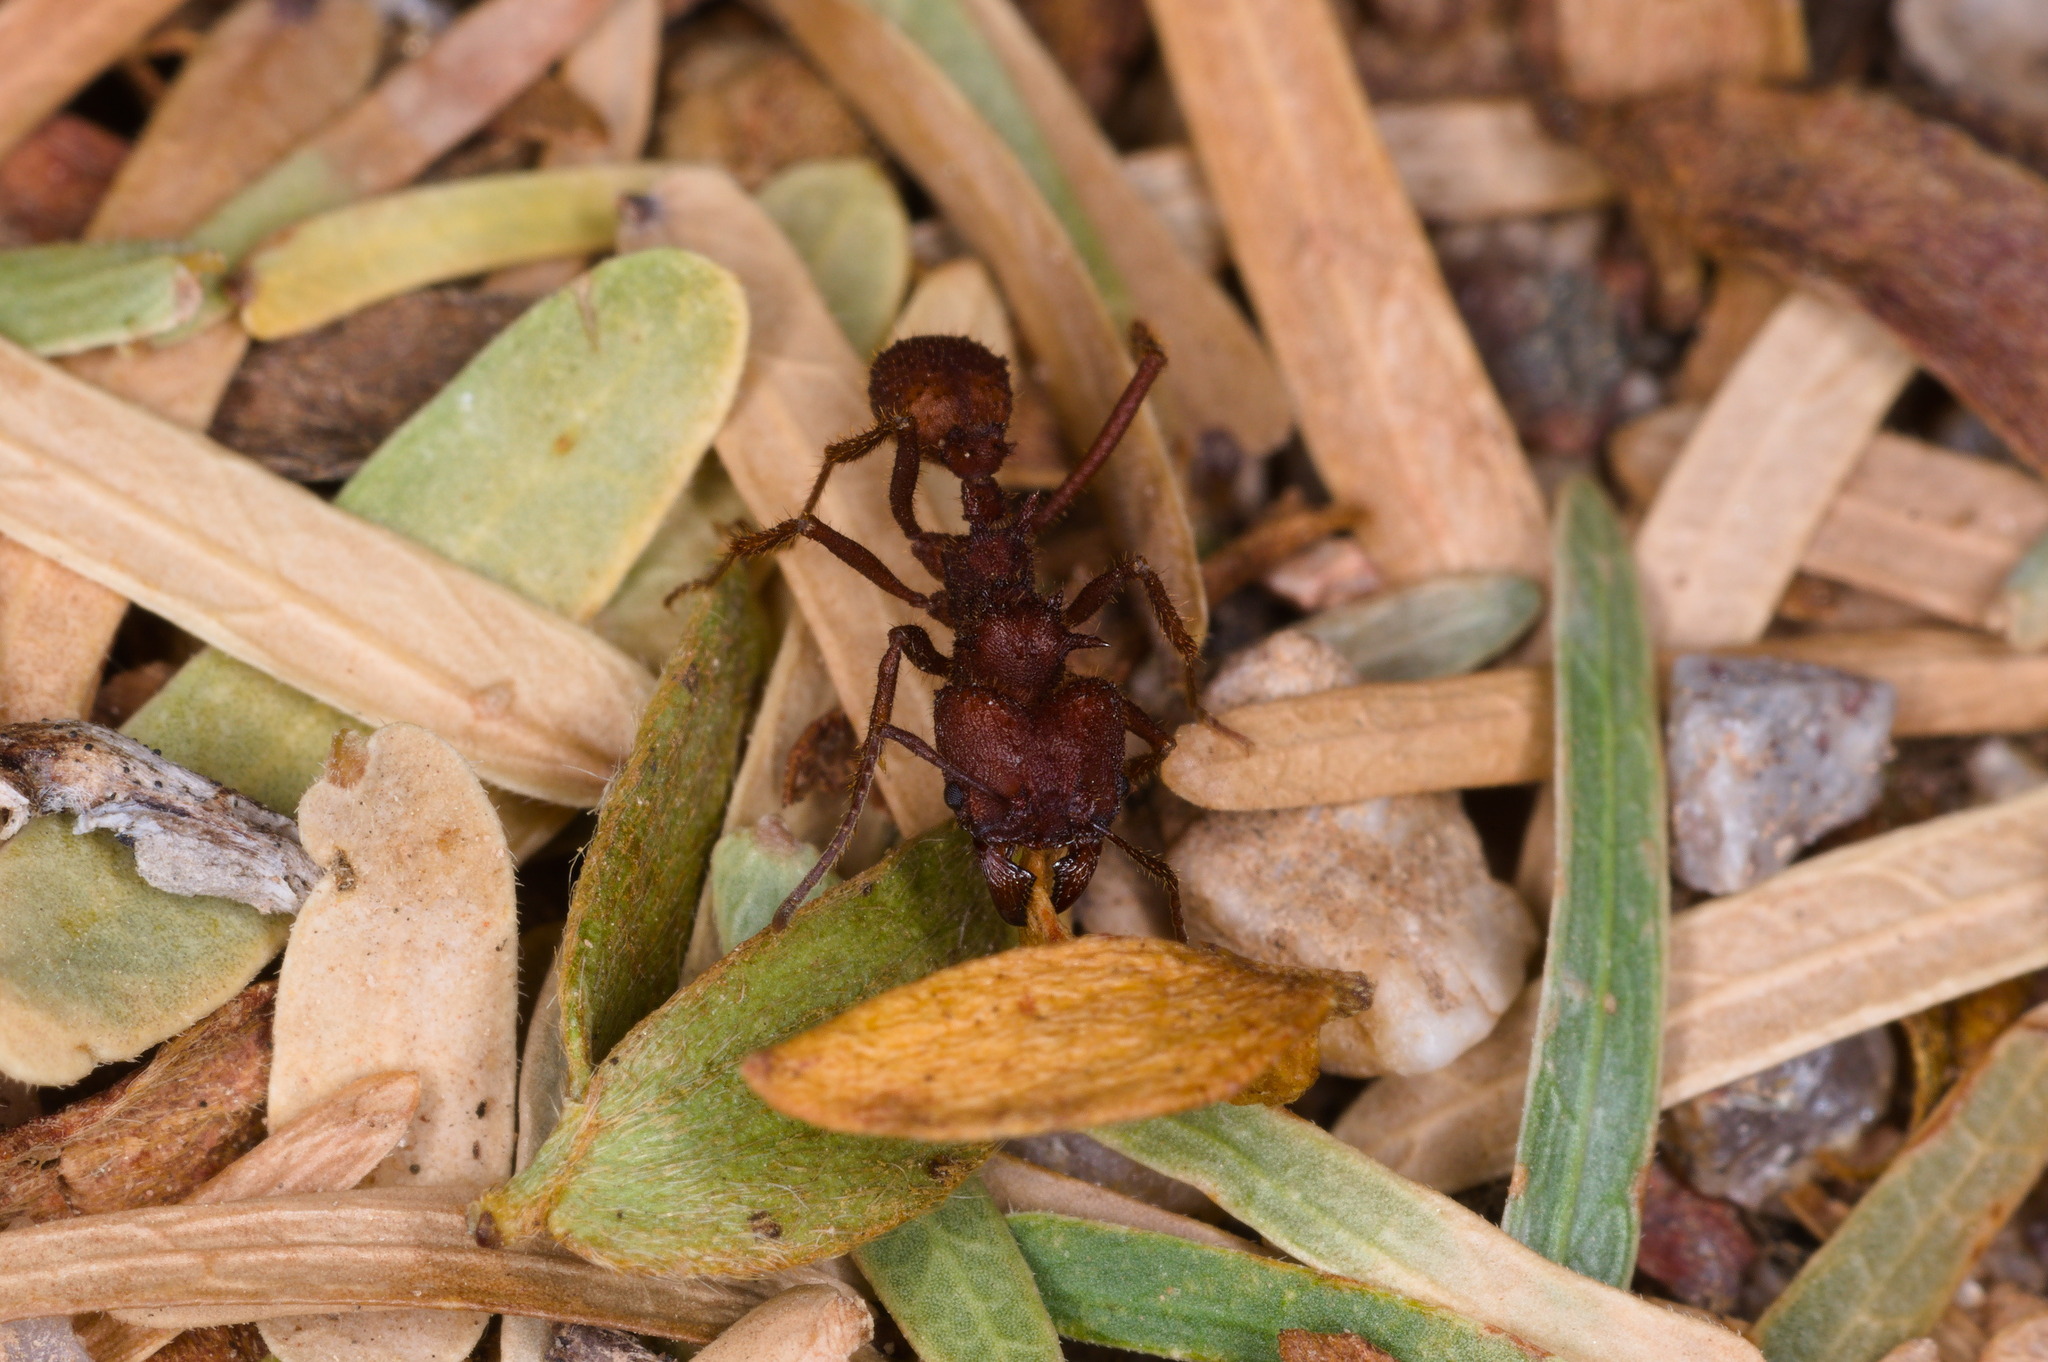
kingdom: Animalia
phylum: Arthropoda
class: Insecta
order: Hymenoptera
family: Formicidae
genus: Acromyrmex
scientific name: Acromyrmex versicolor
